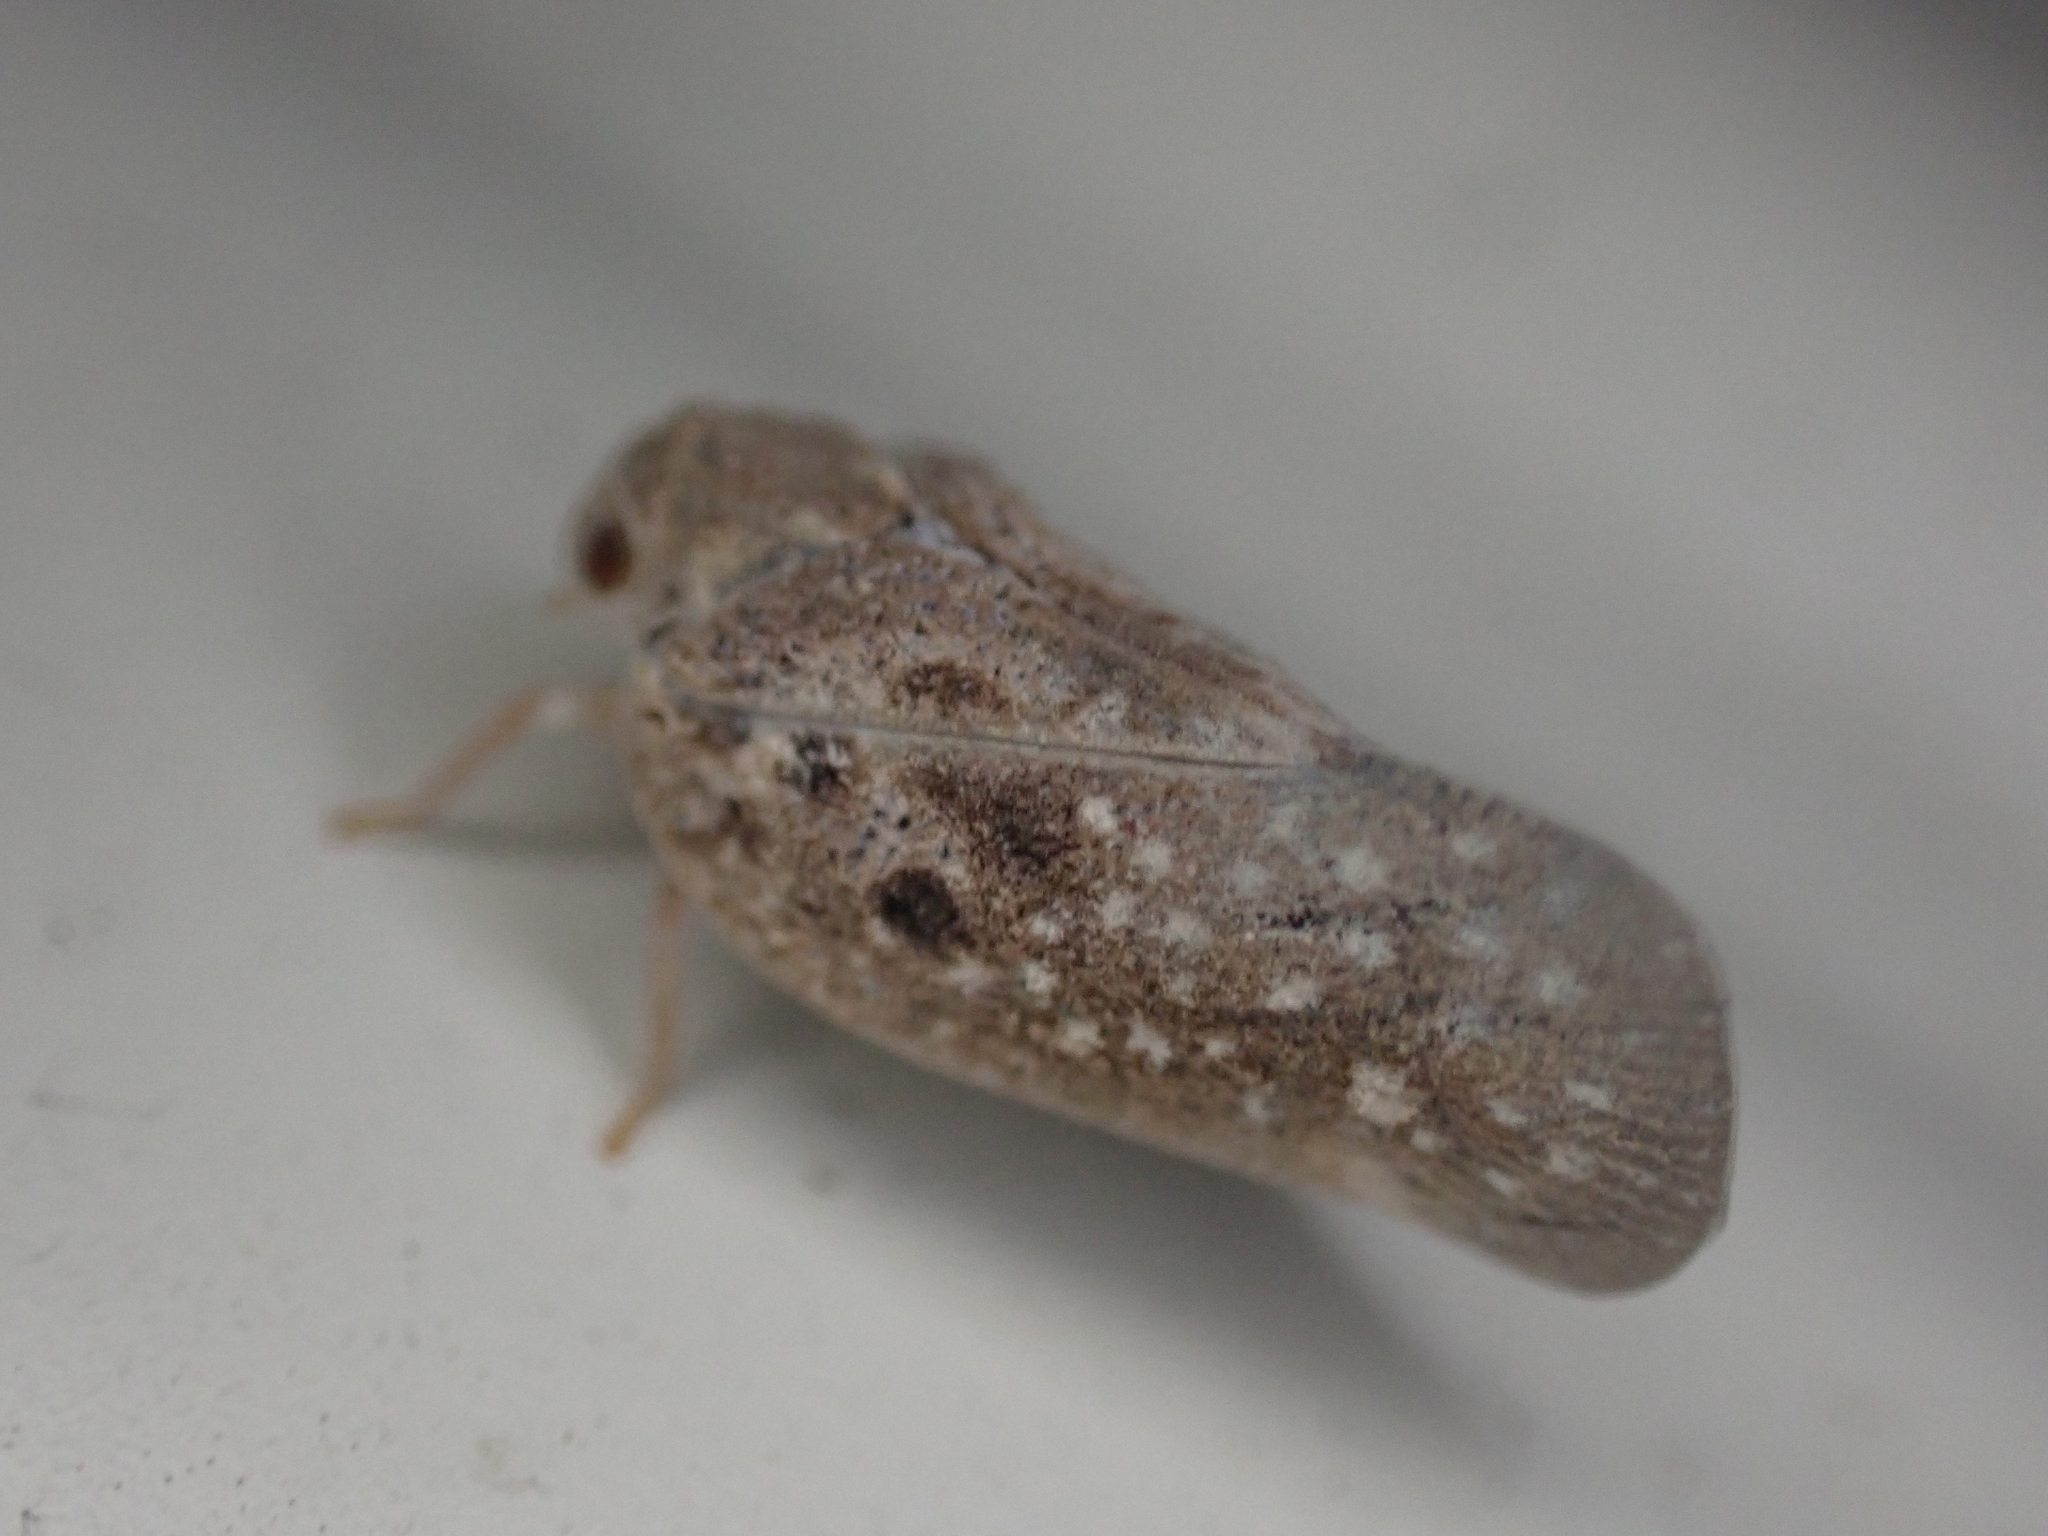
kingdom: Animalia
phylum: Arthropoda
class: Insecta
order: Hemiptera
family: Flatidae
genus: Metcalfa
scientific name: Metcalfa pruinosa
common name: Citrus flatid planthopper
